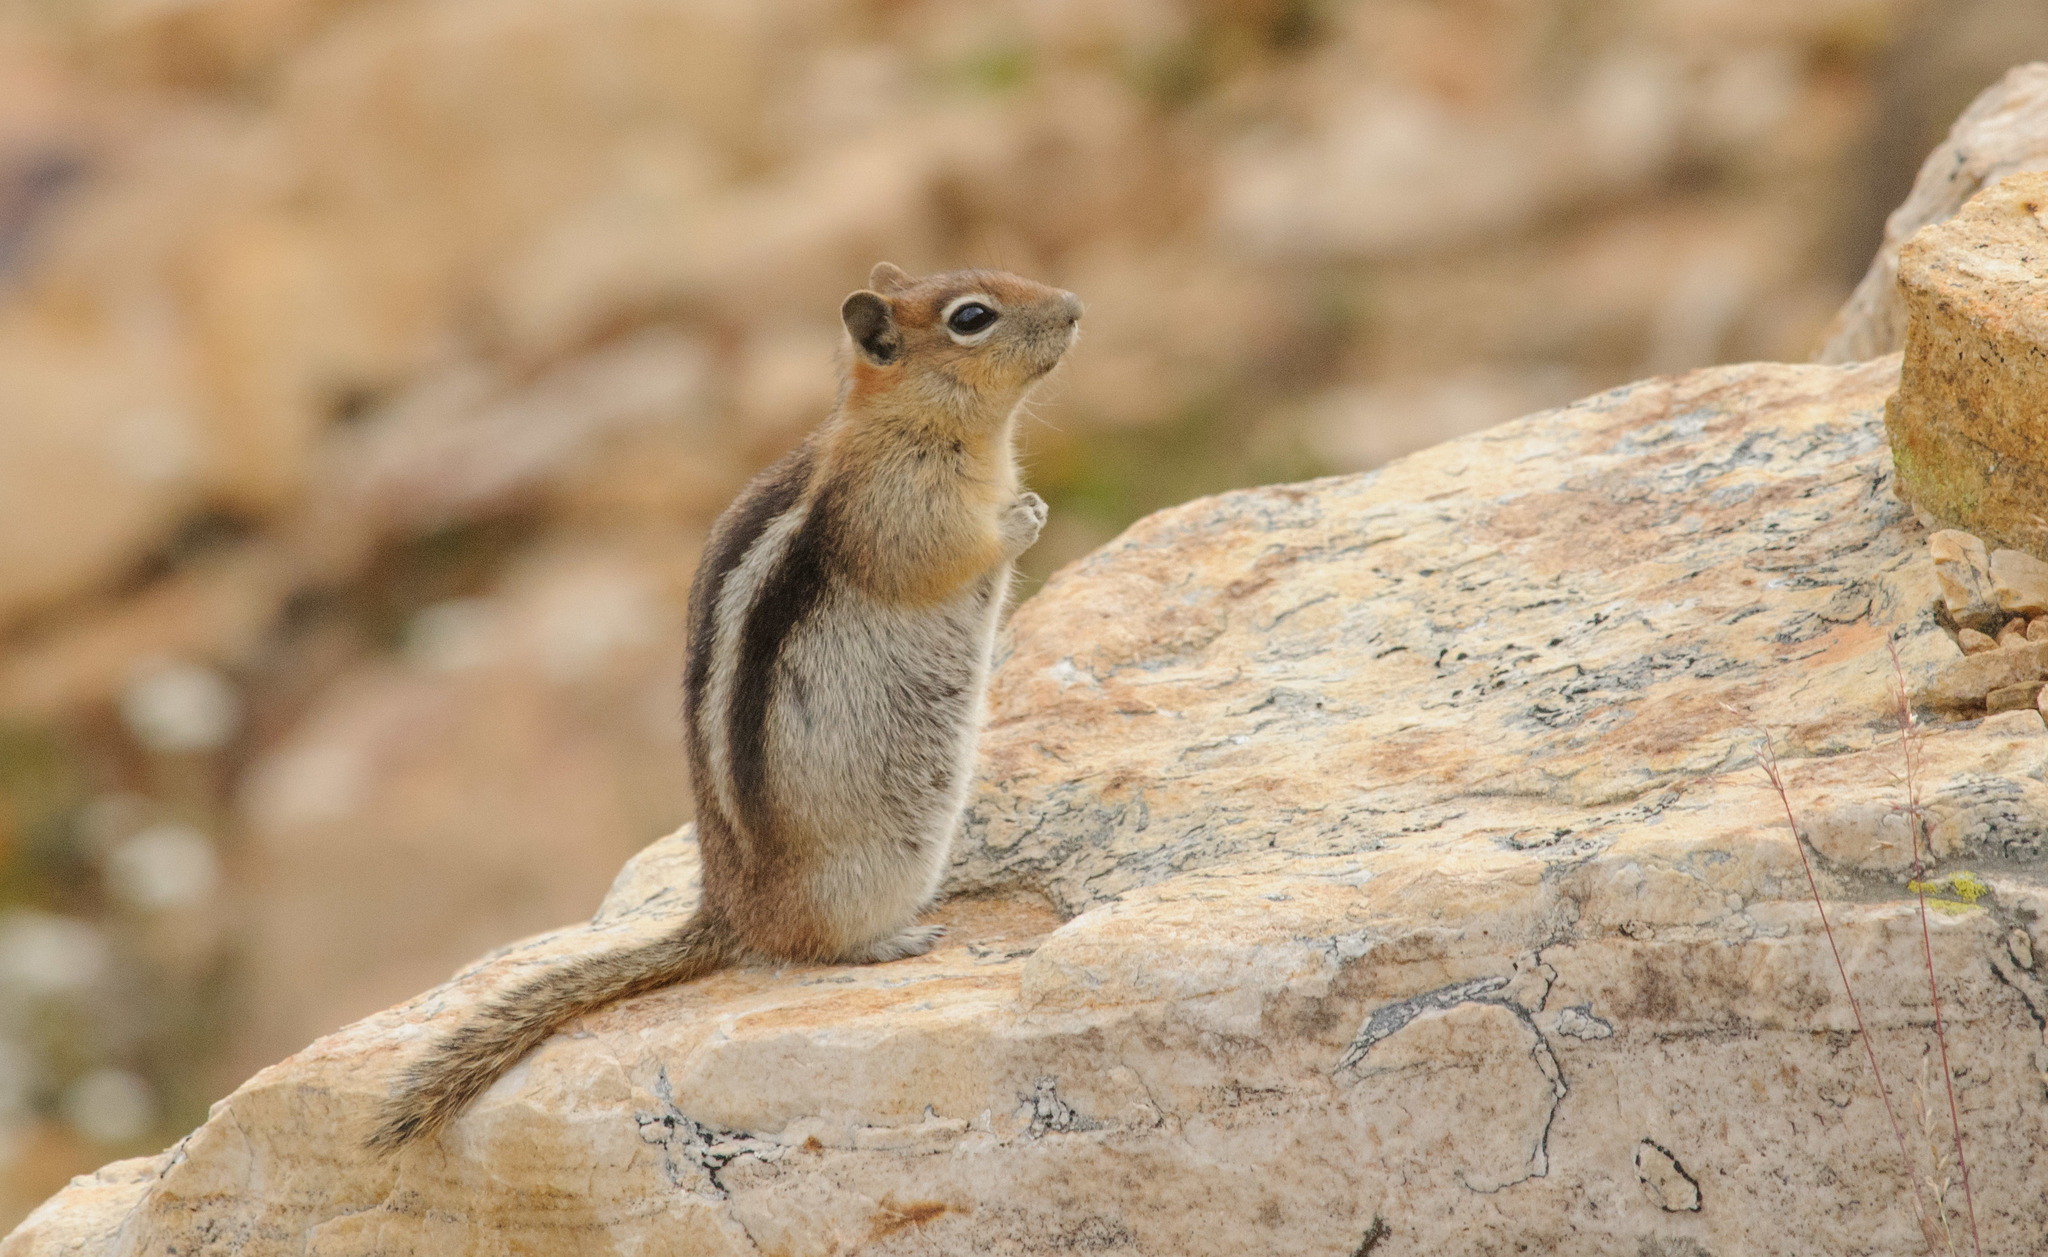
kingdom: Animalia
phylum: Chordata
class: Mammalia
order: Rodentia
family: Sciuridae
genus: Callospermophilus
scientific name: Callospermophilus lateralis
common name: Golden-mantled ground squirrel
